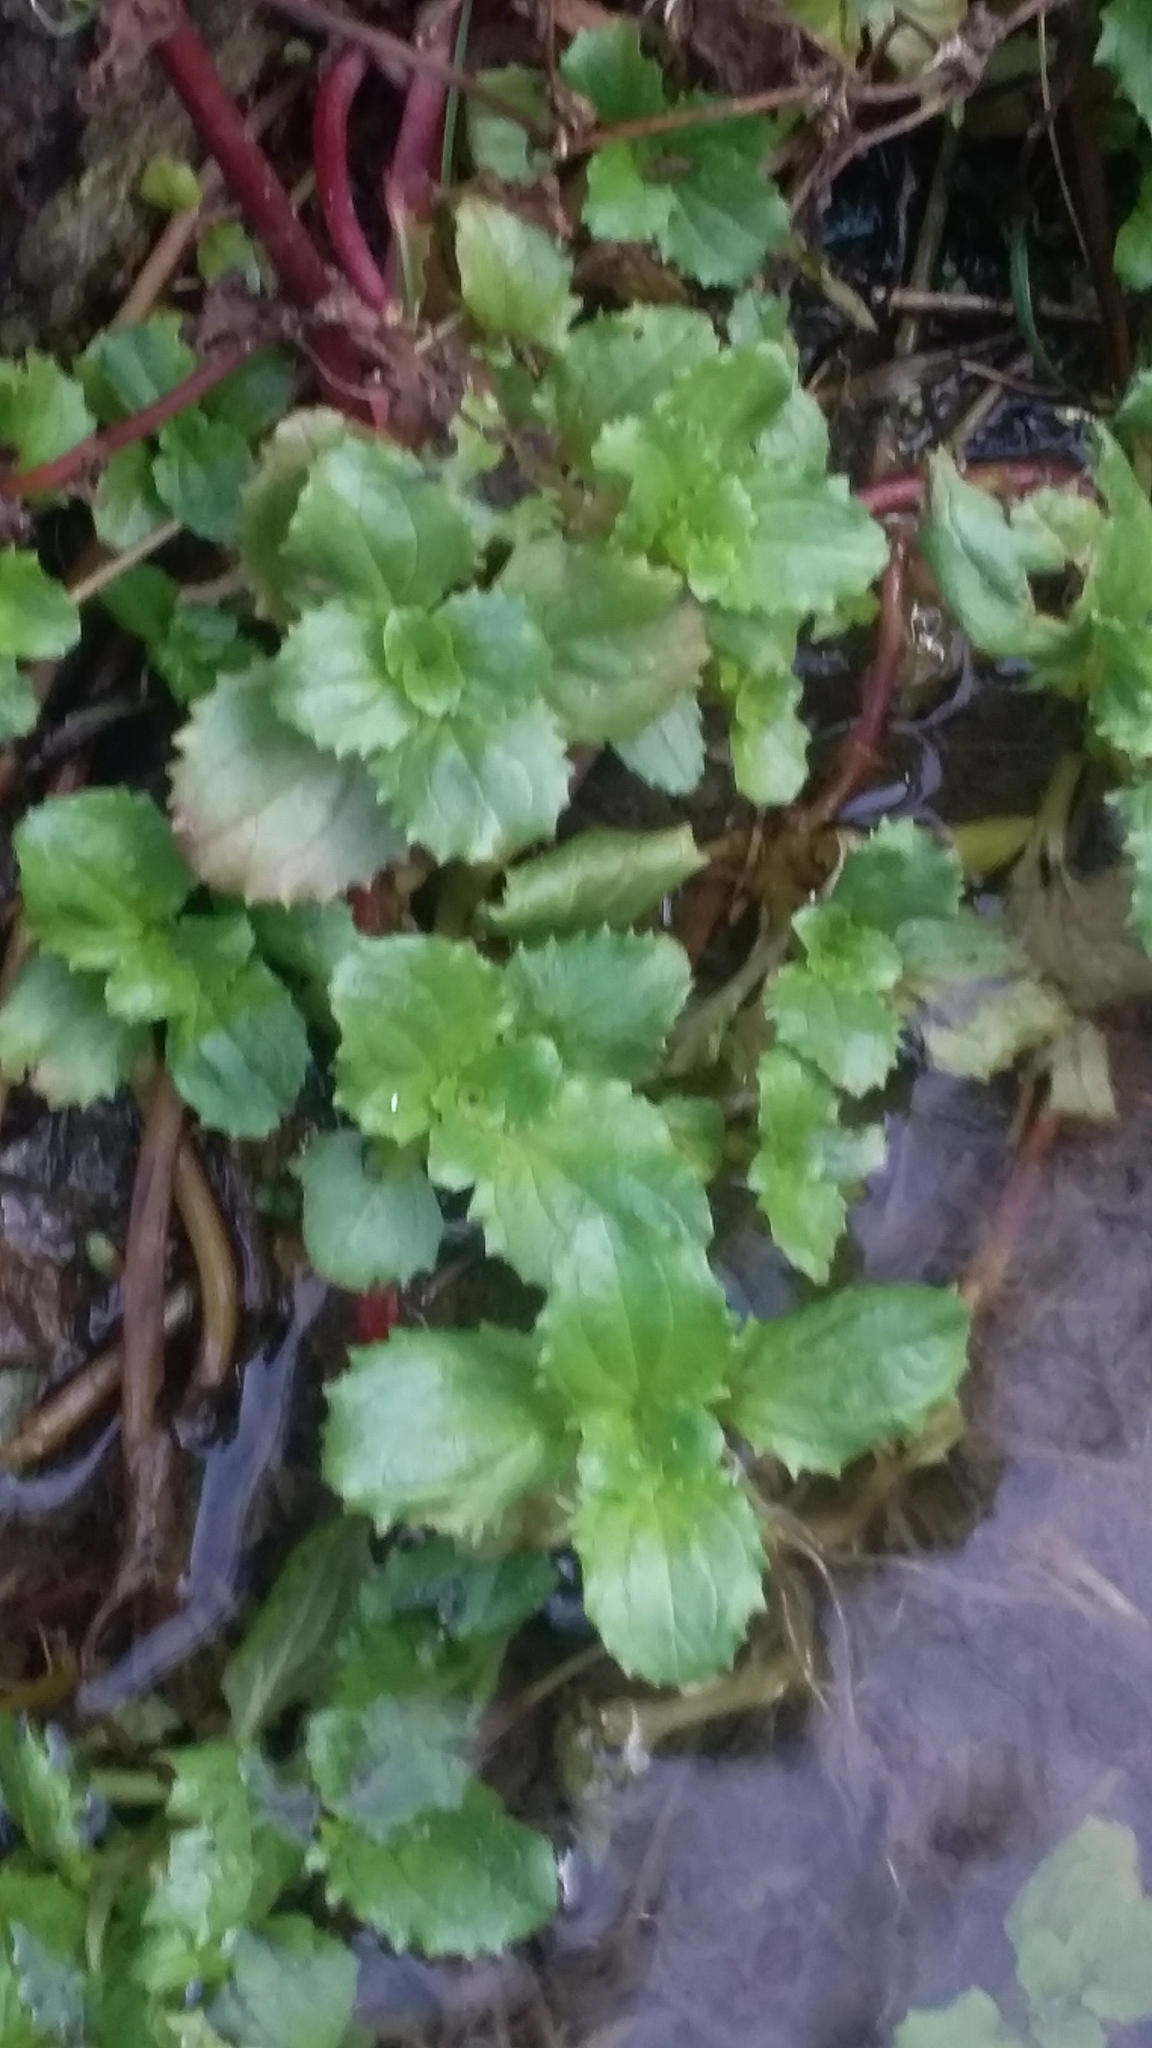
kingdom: Plantae
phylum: Tracheophyta
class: Magnoliopsida
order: Lamiales
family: Phrymaceae
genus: Erythranthe
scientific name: Erythranthe guttata
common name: Monkeyflower
